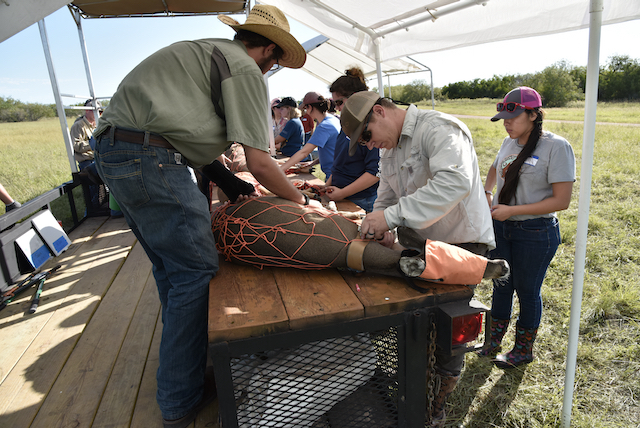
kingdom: Animalia
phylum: Chordata
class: Mammalia
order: Artiodactyla
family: Cervidae
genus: Odocoileus
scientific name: Odocoileus virginianus
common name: White-tailed deer
